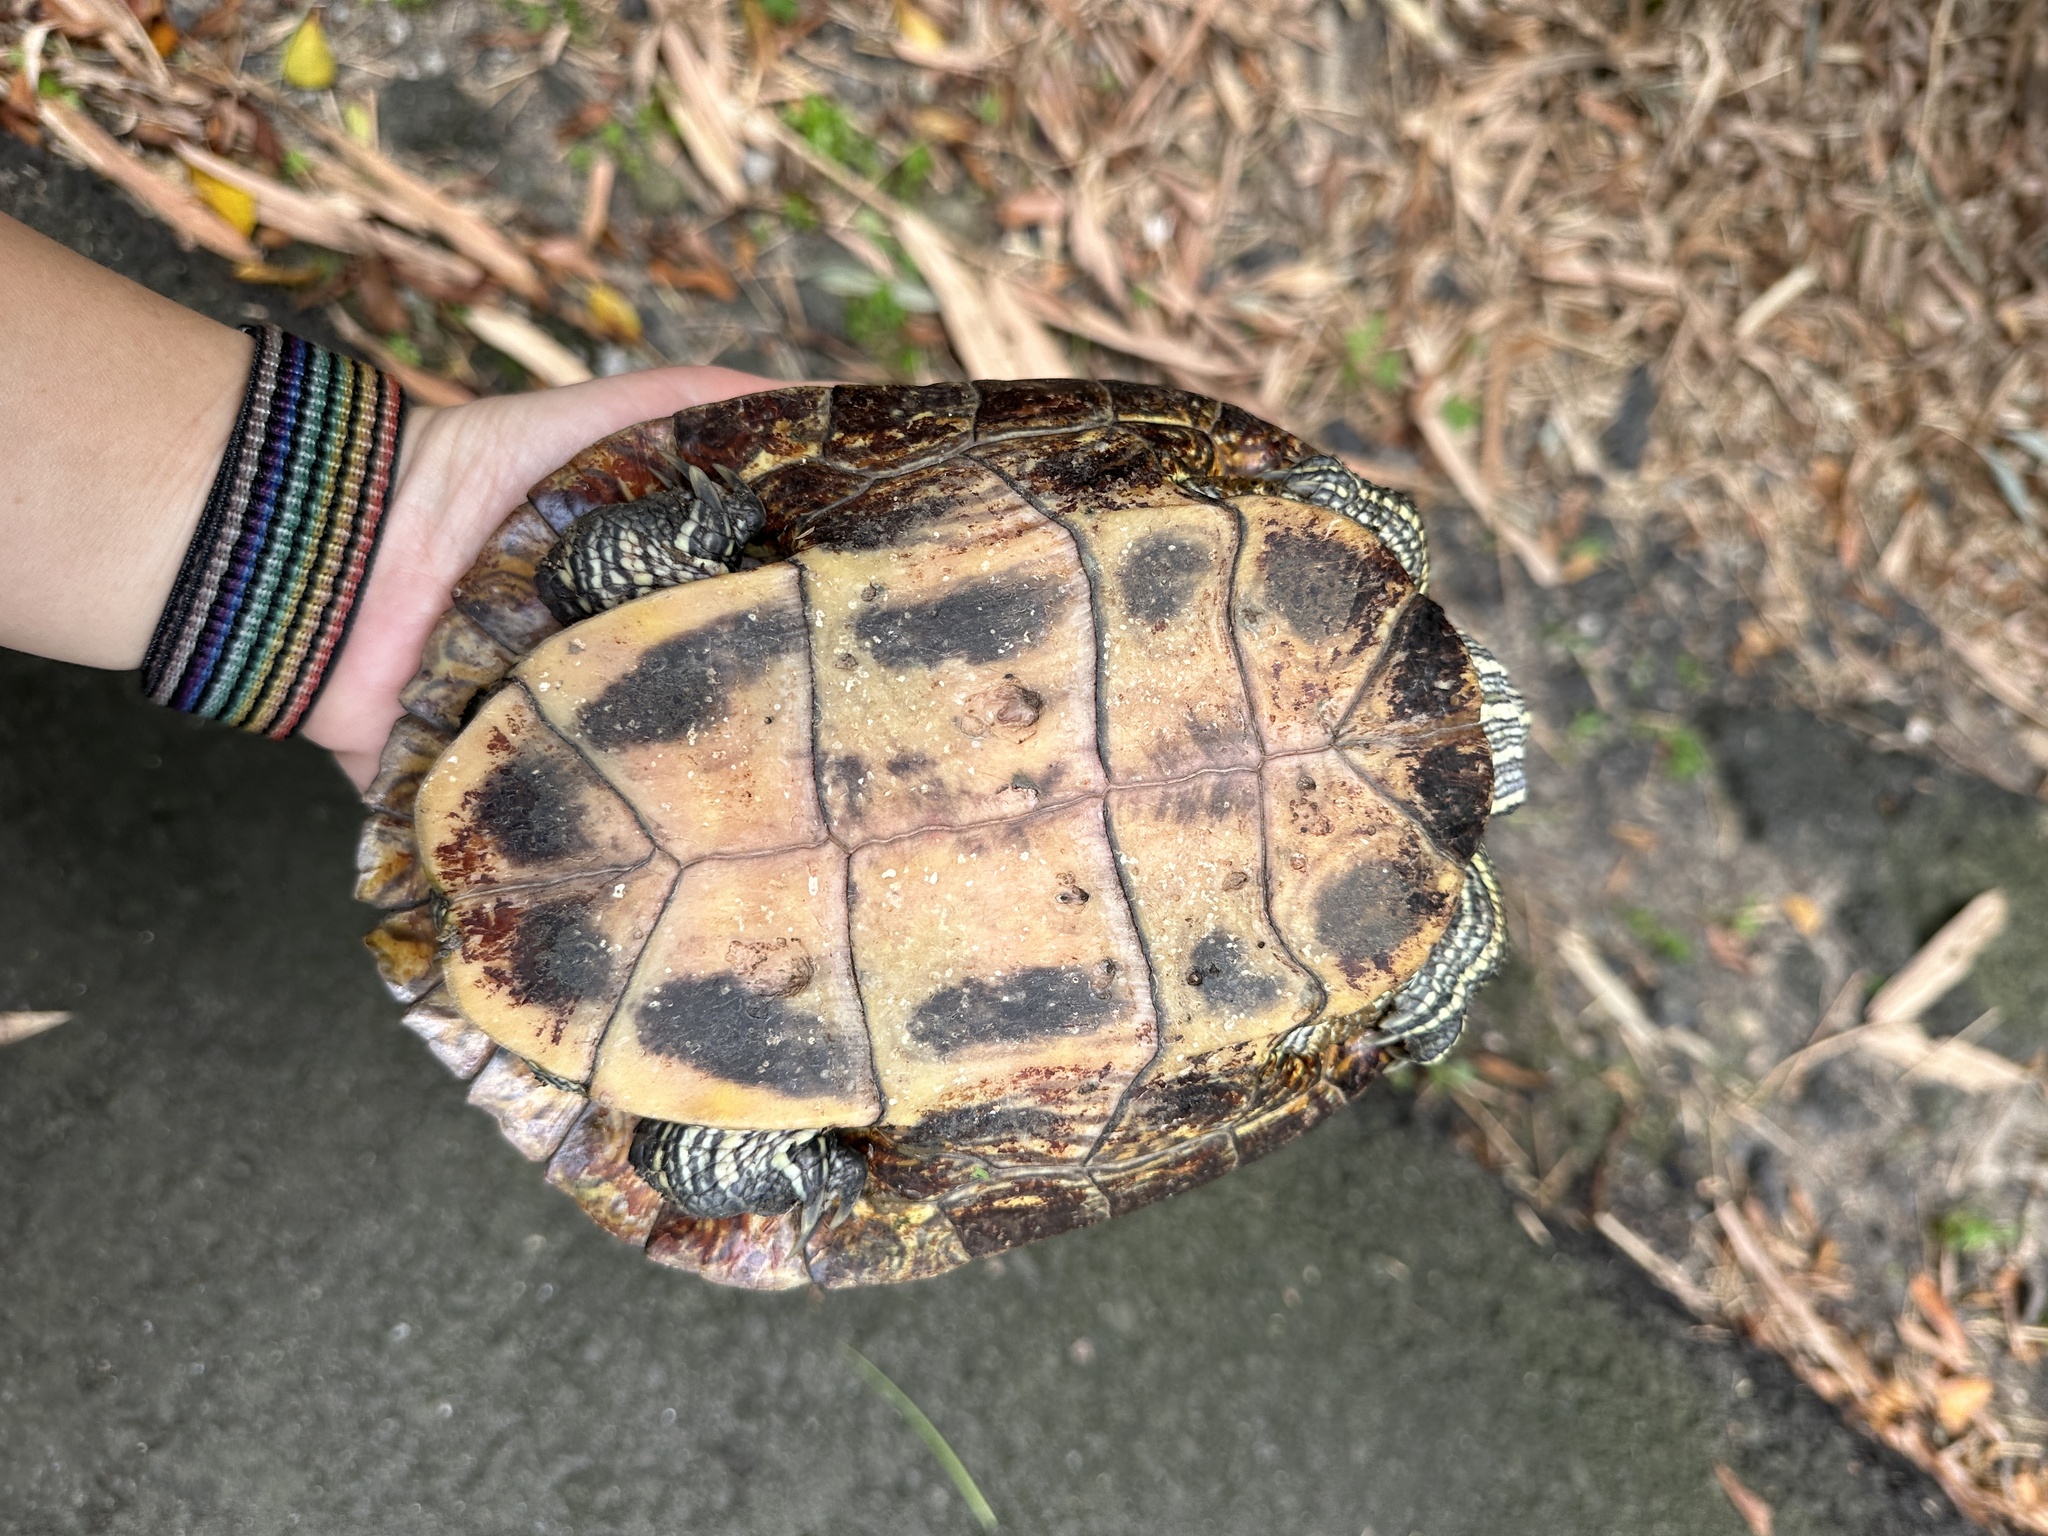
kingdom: Animalia
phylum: Chordata
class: Testudines
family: Emydidae
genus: Trachemys
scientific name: Trachemys scripta
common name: Slider
